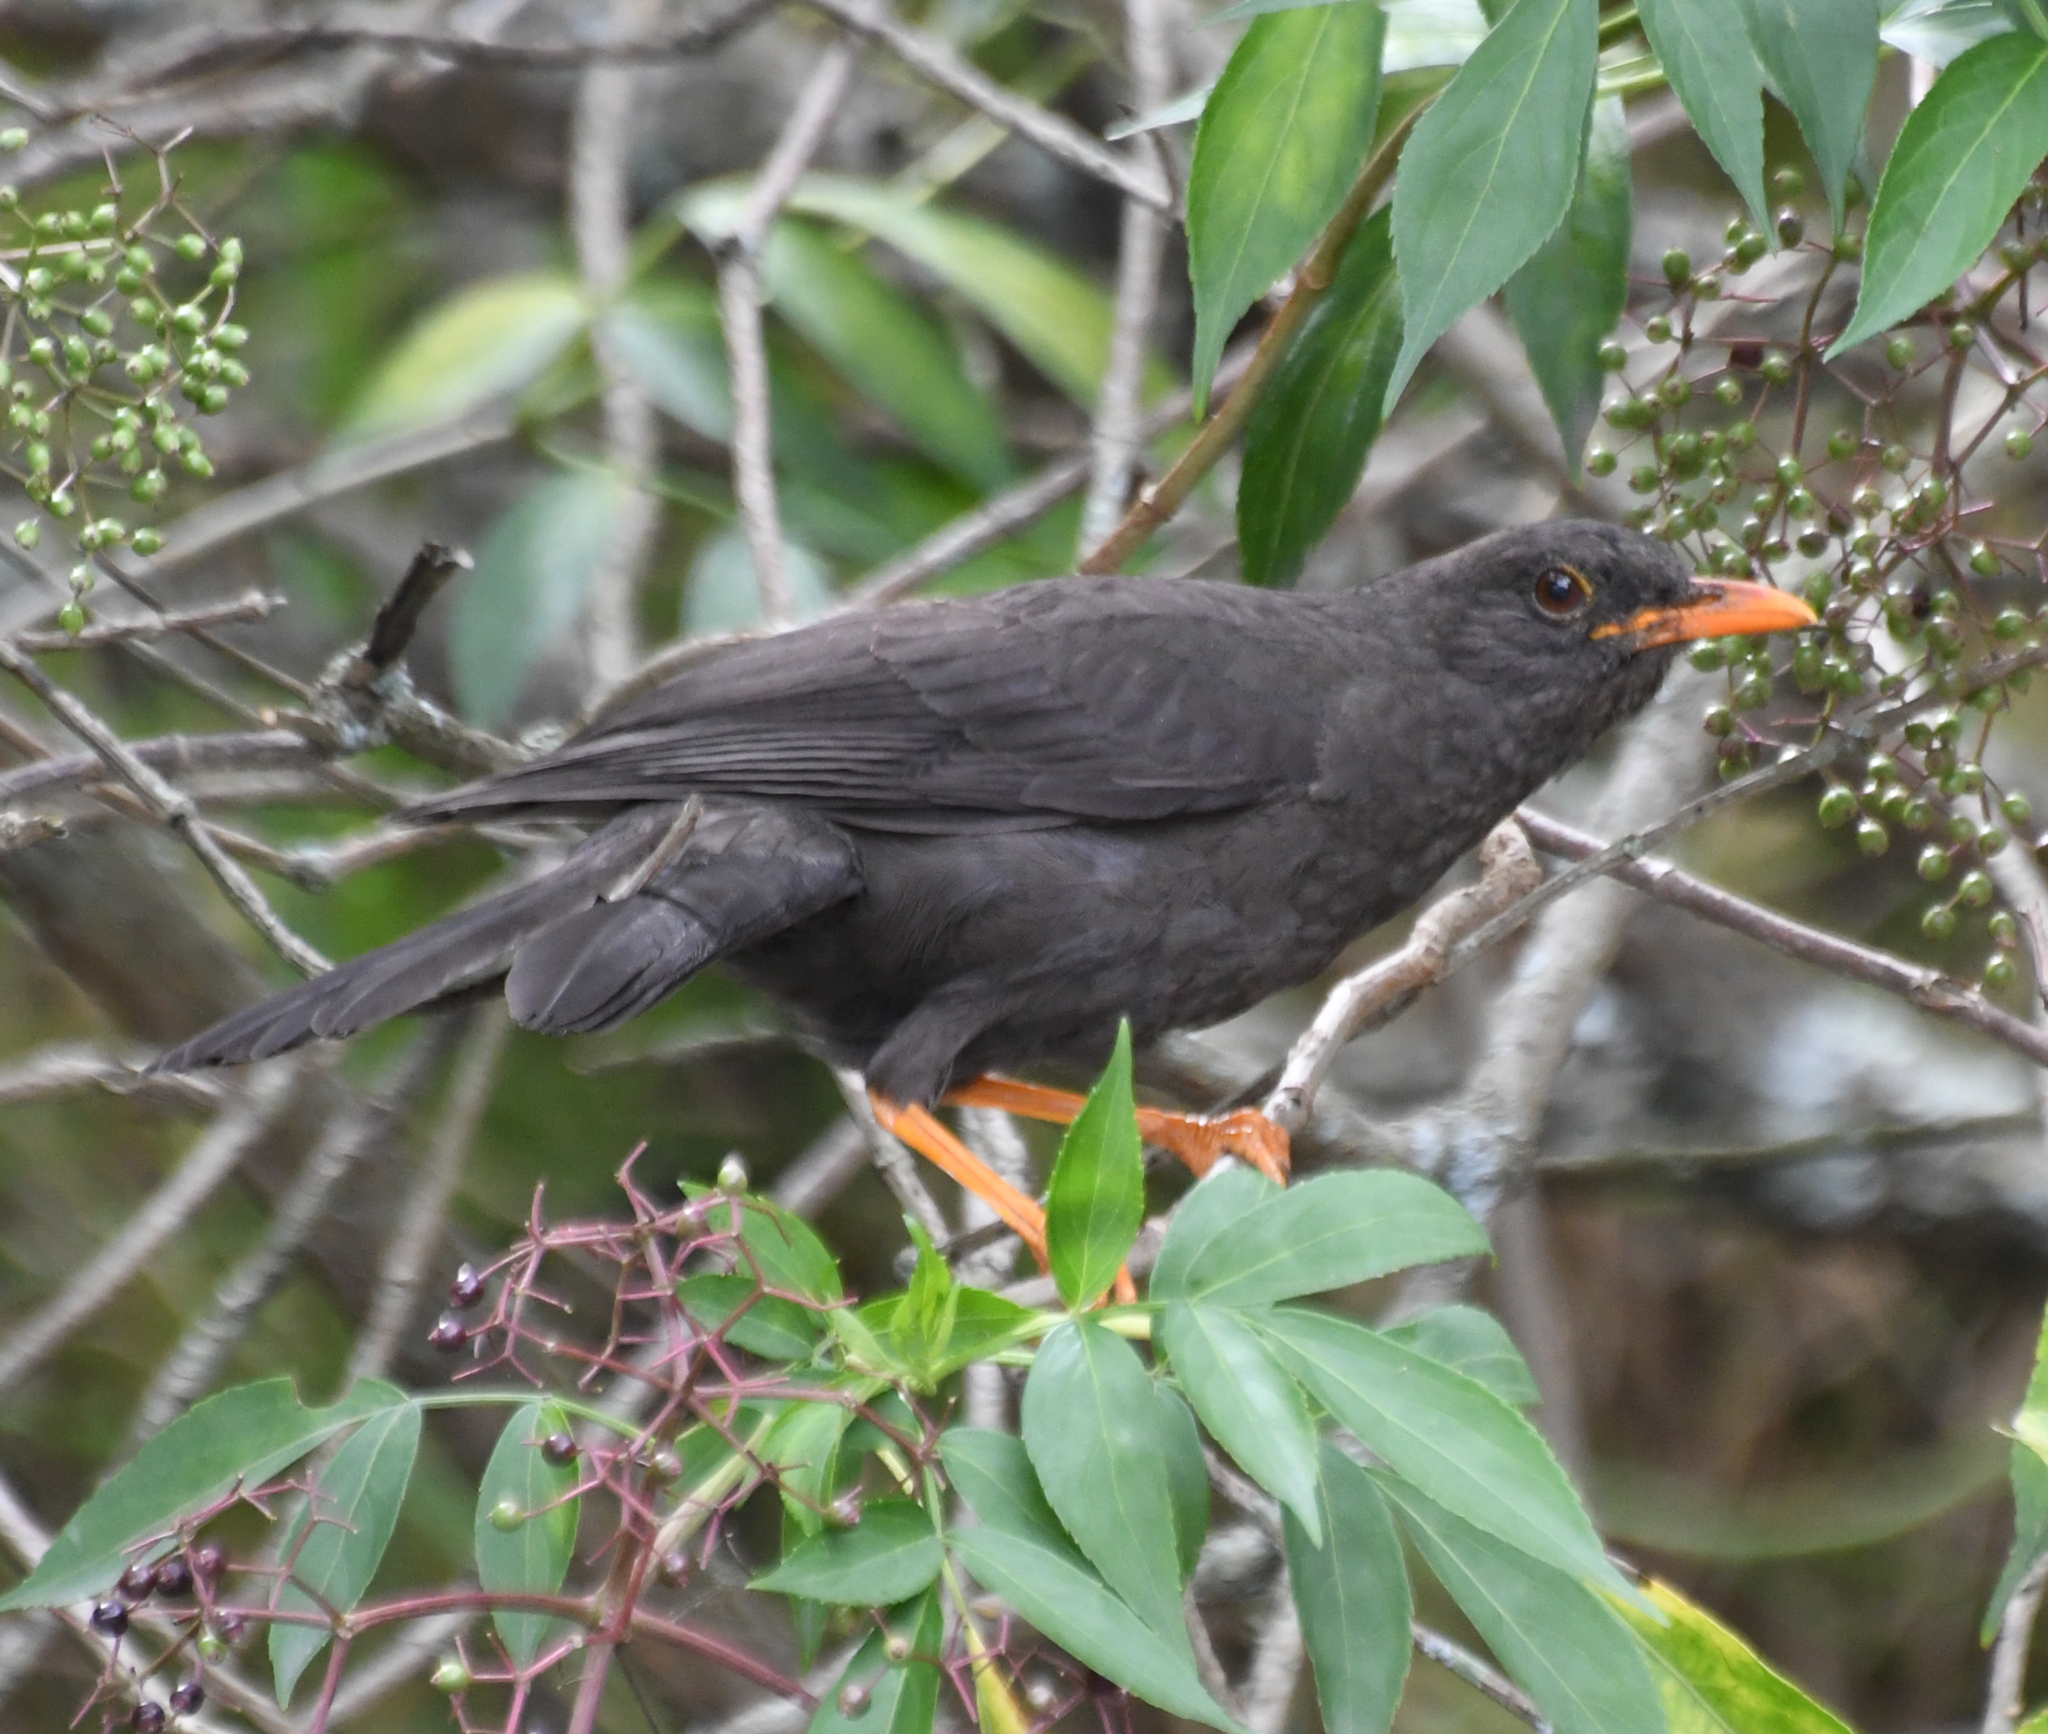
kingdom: Animalia
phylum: Chordata
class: Aves
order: Passeriformes
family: Turdidae
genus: Turdus
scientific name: Turdus fuscater
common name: Great thrush
